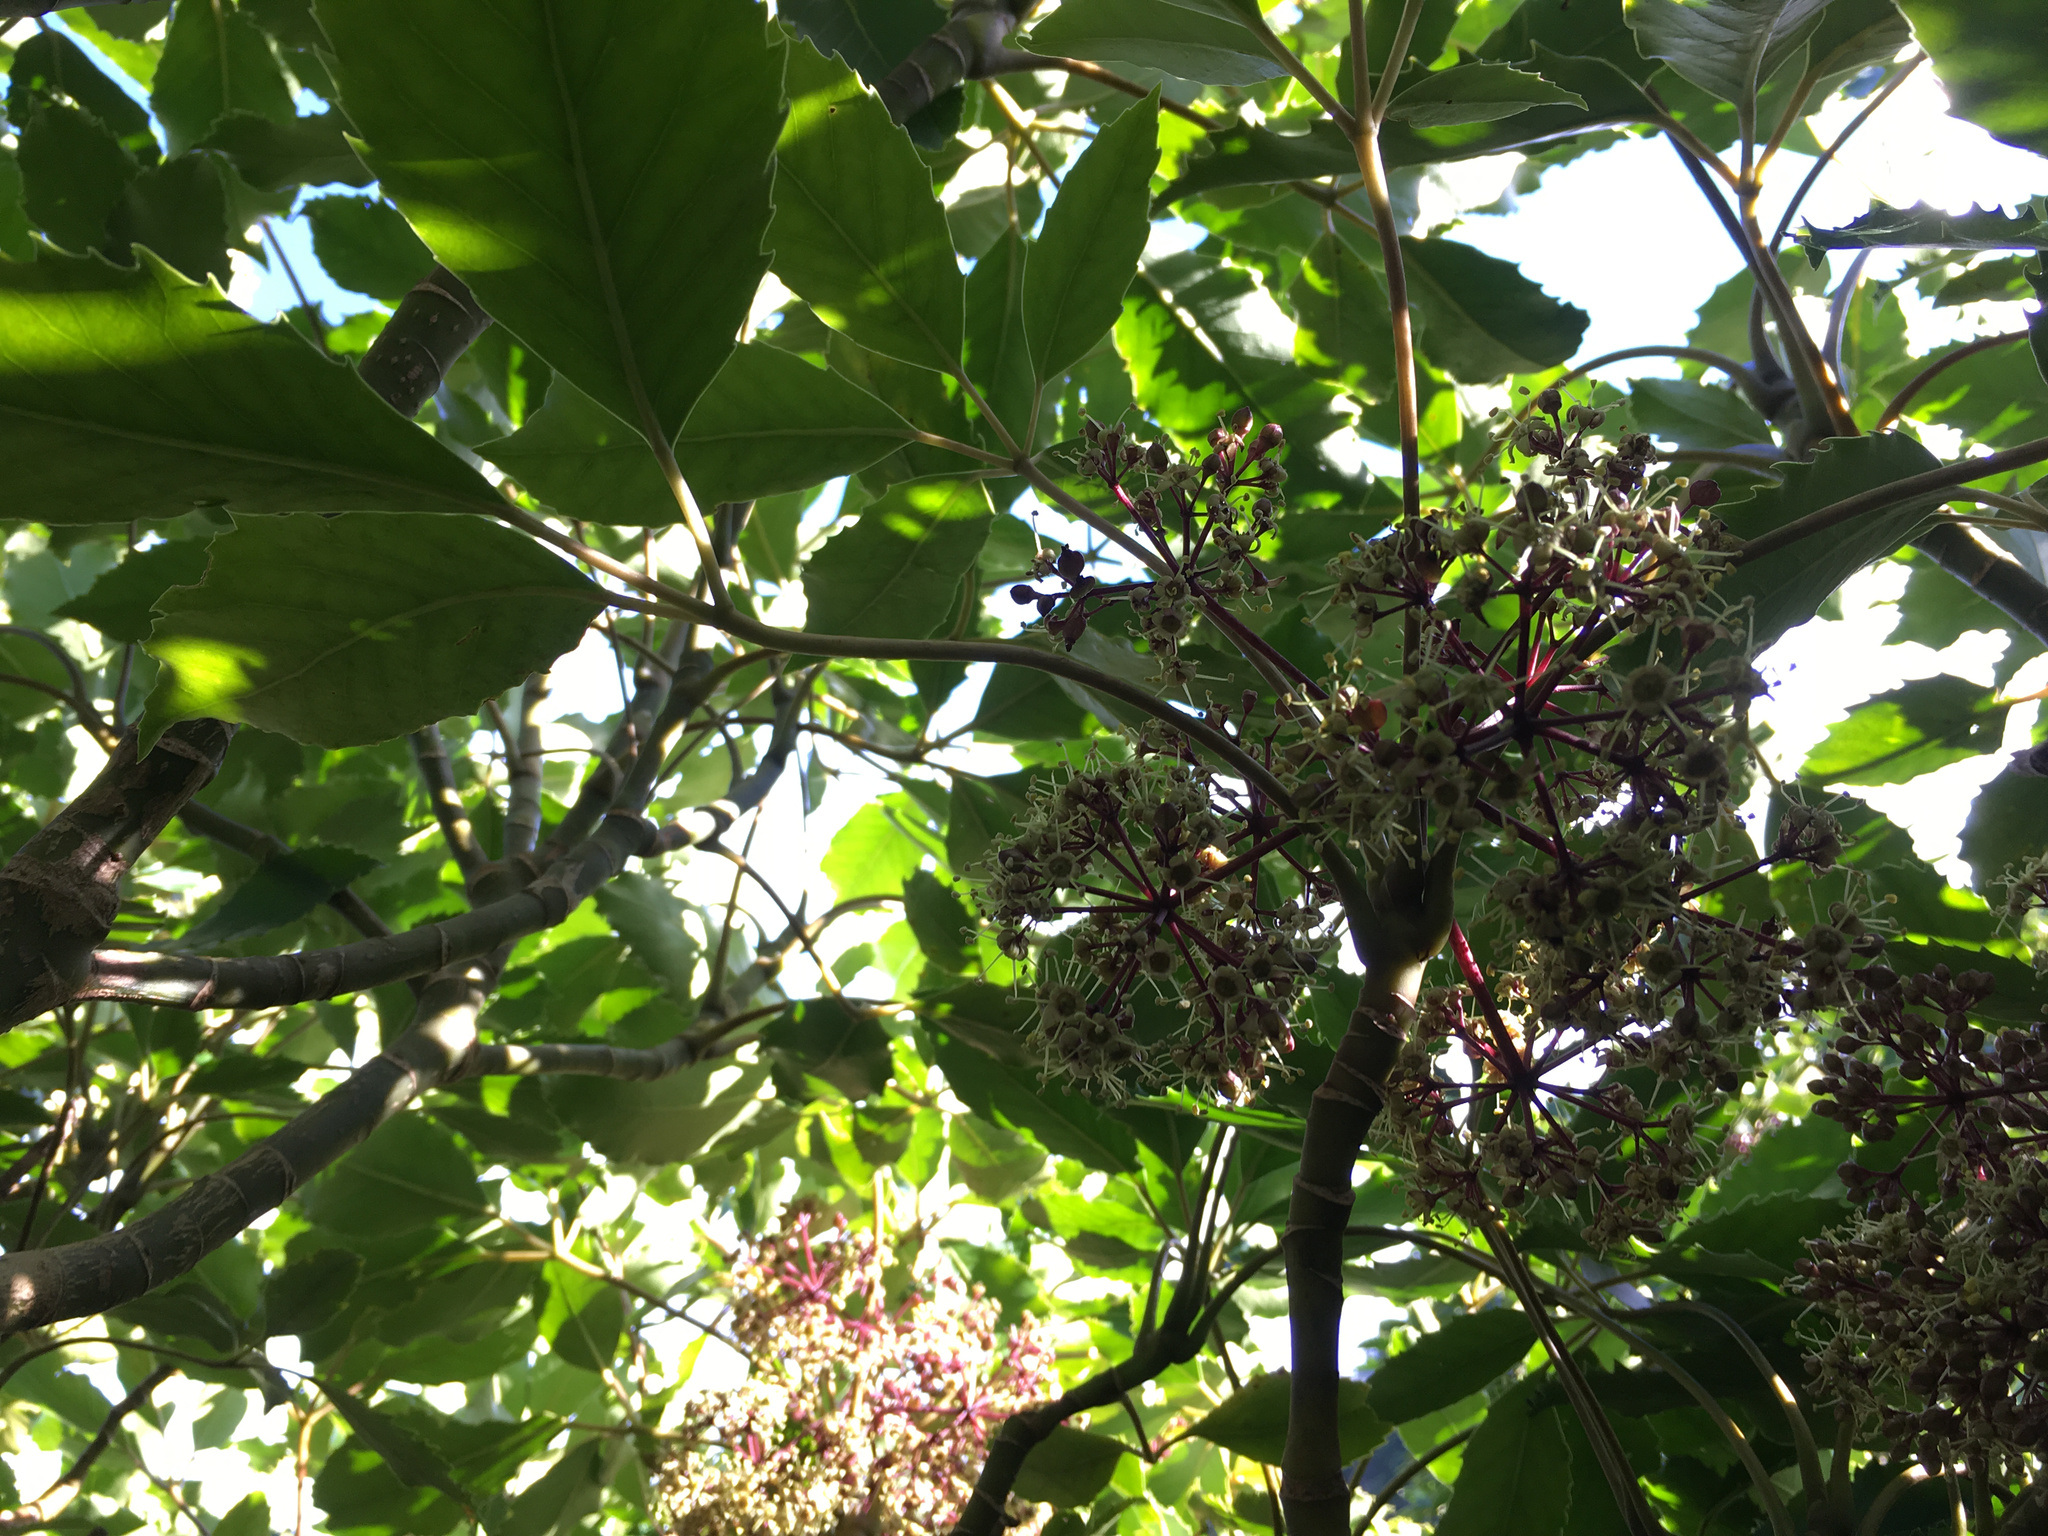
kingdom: Plantae
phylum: Tracheophyta
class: Magnoliopsida
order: Apiales
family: Araliaceae
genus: Neopanax
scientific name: Neopanax arboreus
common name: Five-fingers
